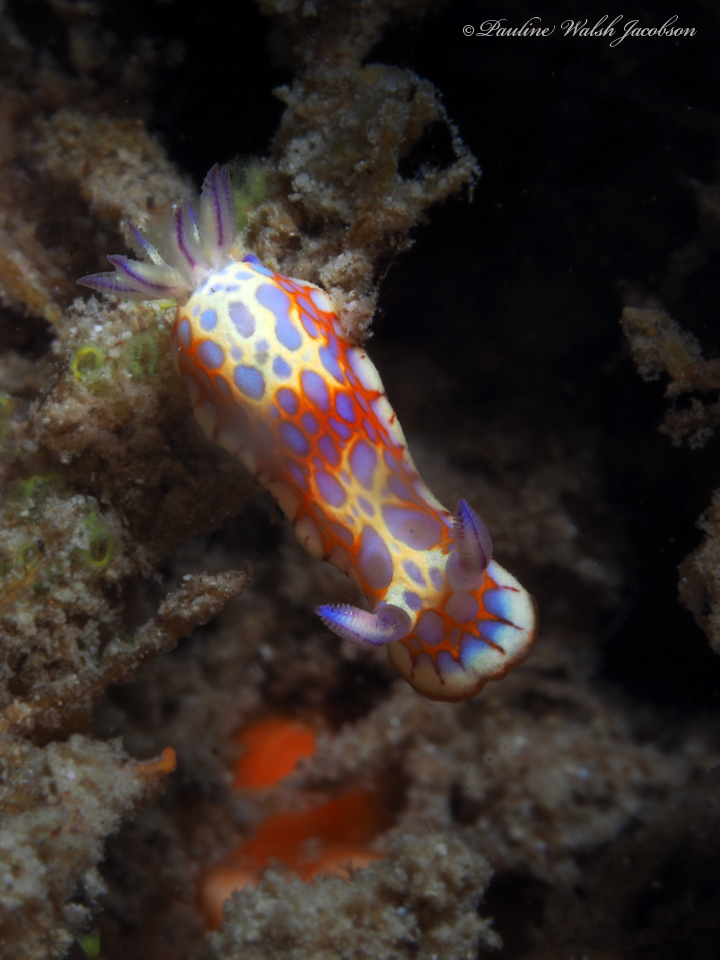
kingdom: Animalia
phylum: Mollusca
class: Gastropoda
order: Nudibranchia
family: Chromodorididae
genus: Felimida
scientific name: Felimida binza
